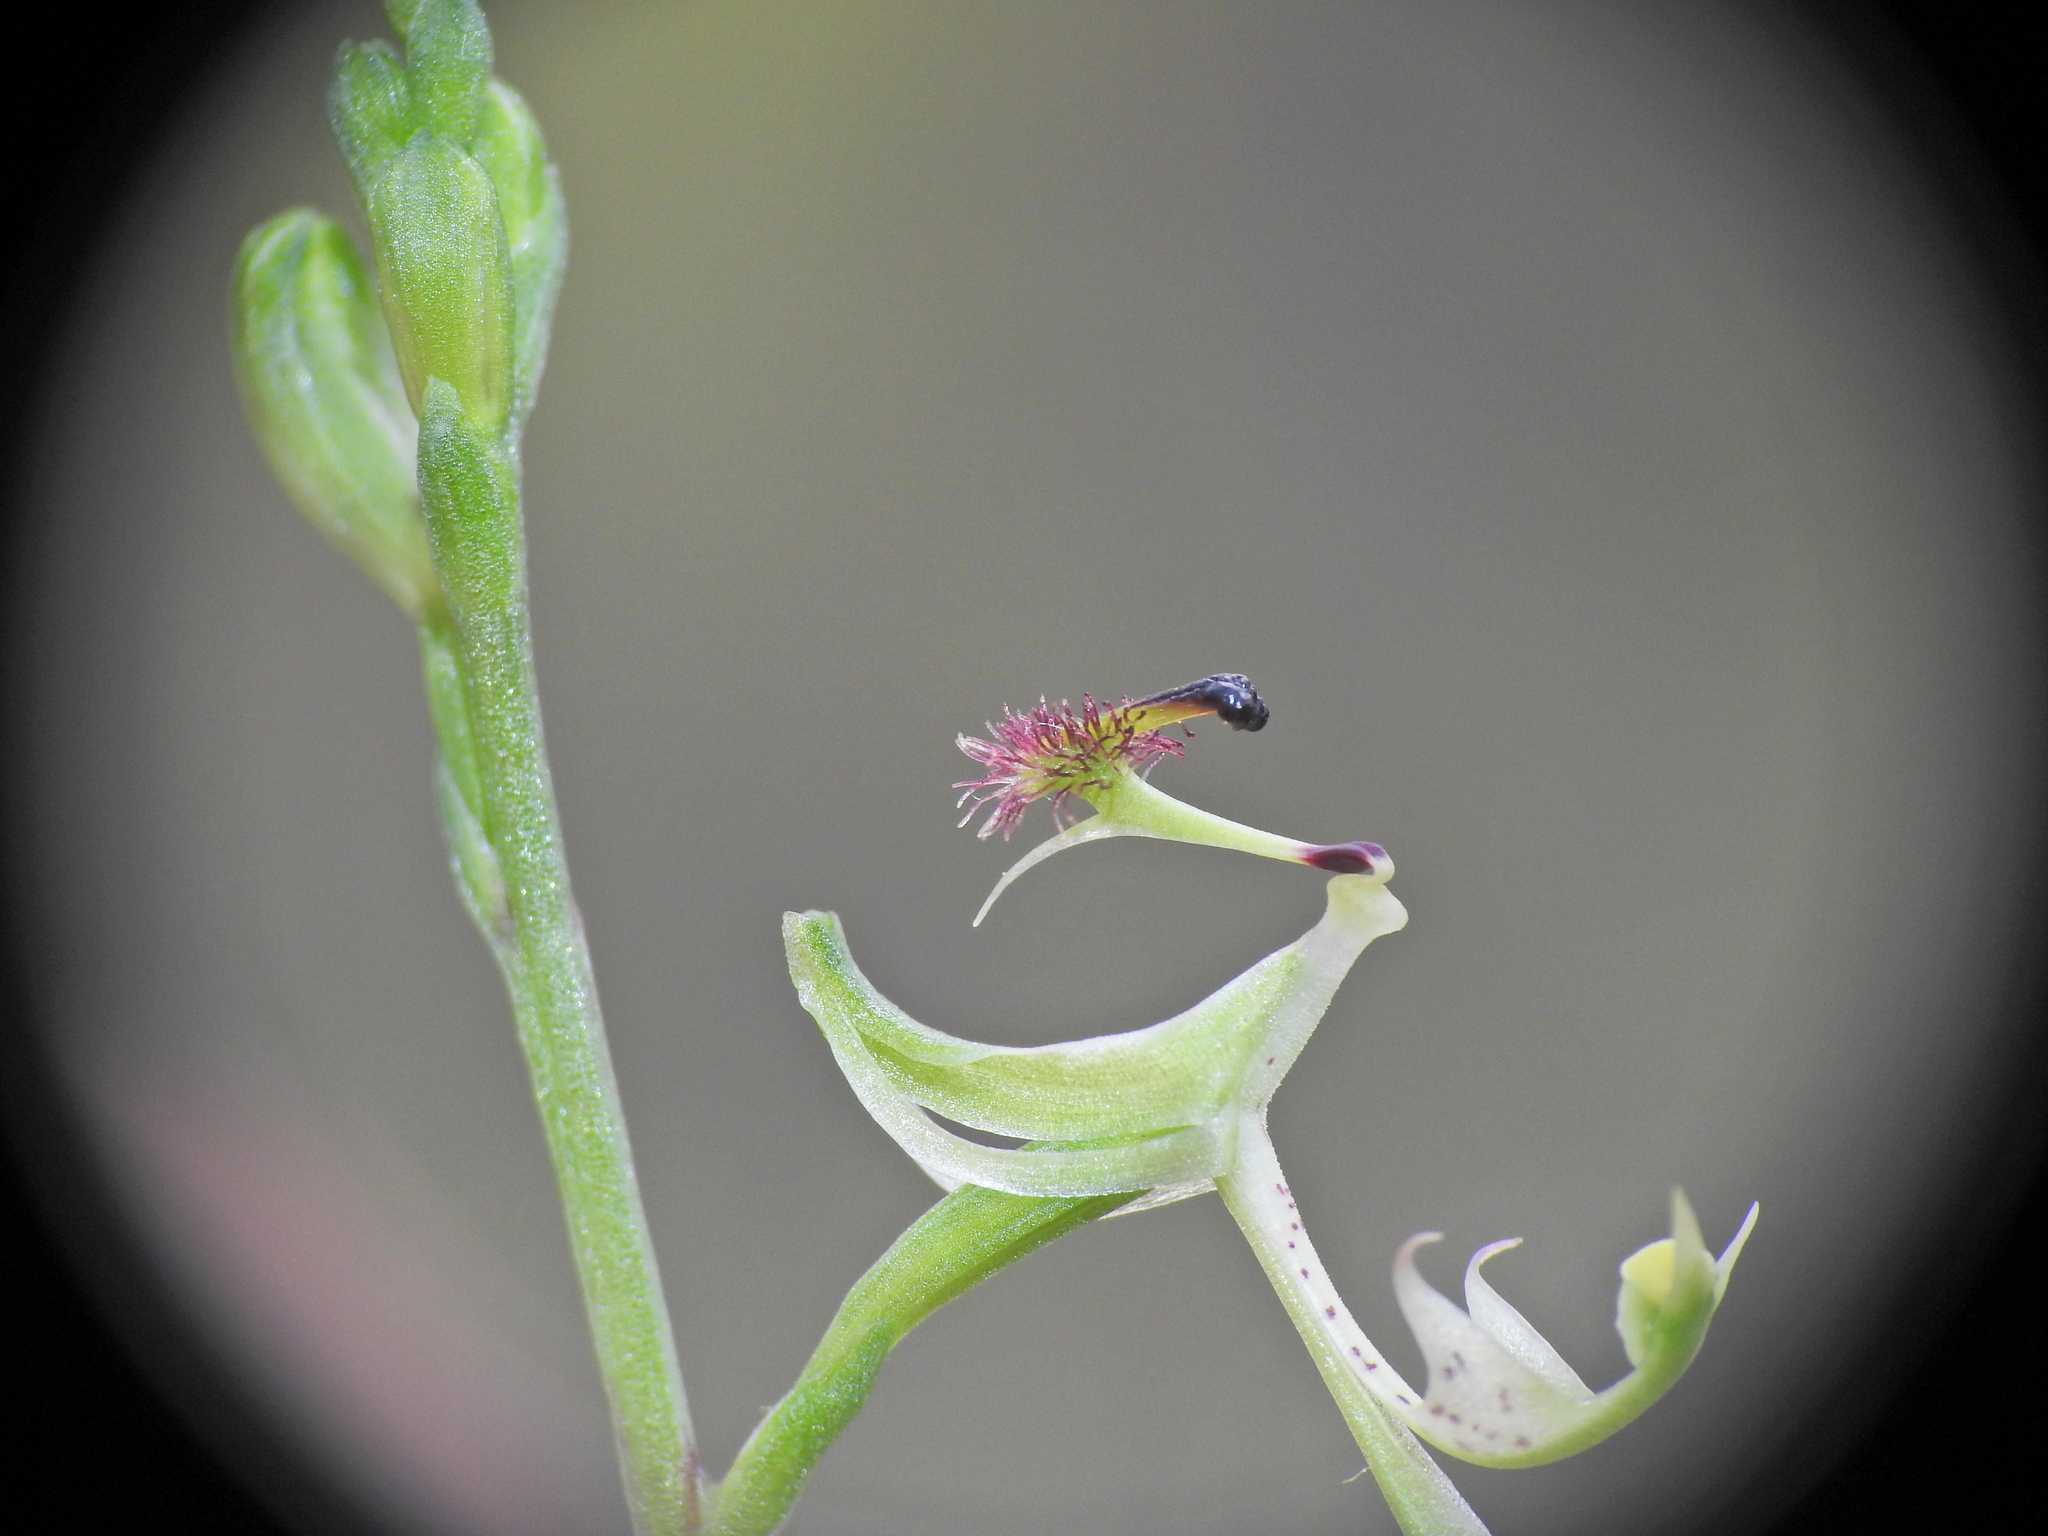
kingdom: Plantae
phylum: Tracheophyta
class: Liliopsida
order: Asparagales
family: Orchidaceae
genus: Arthrochilus
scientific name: Arthrochilus prolixus
